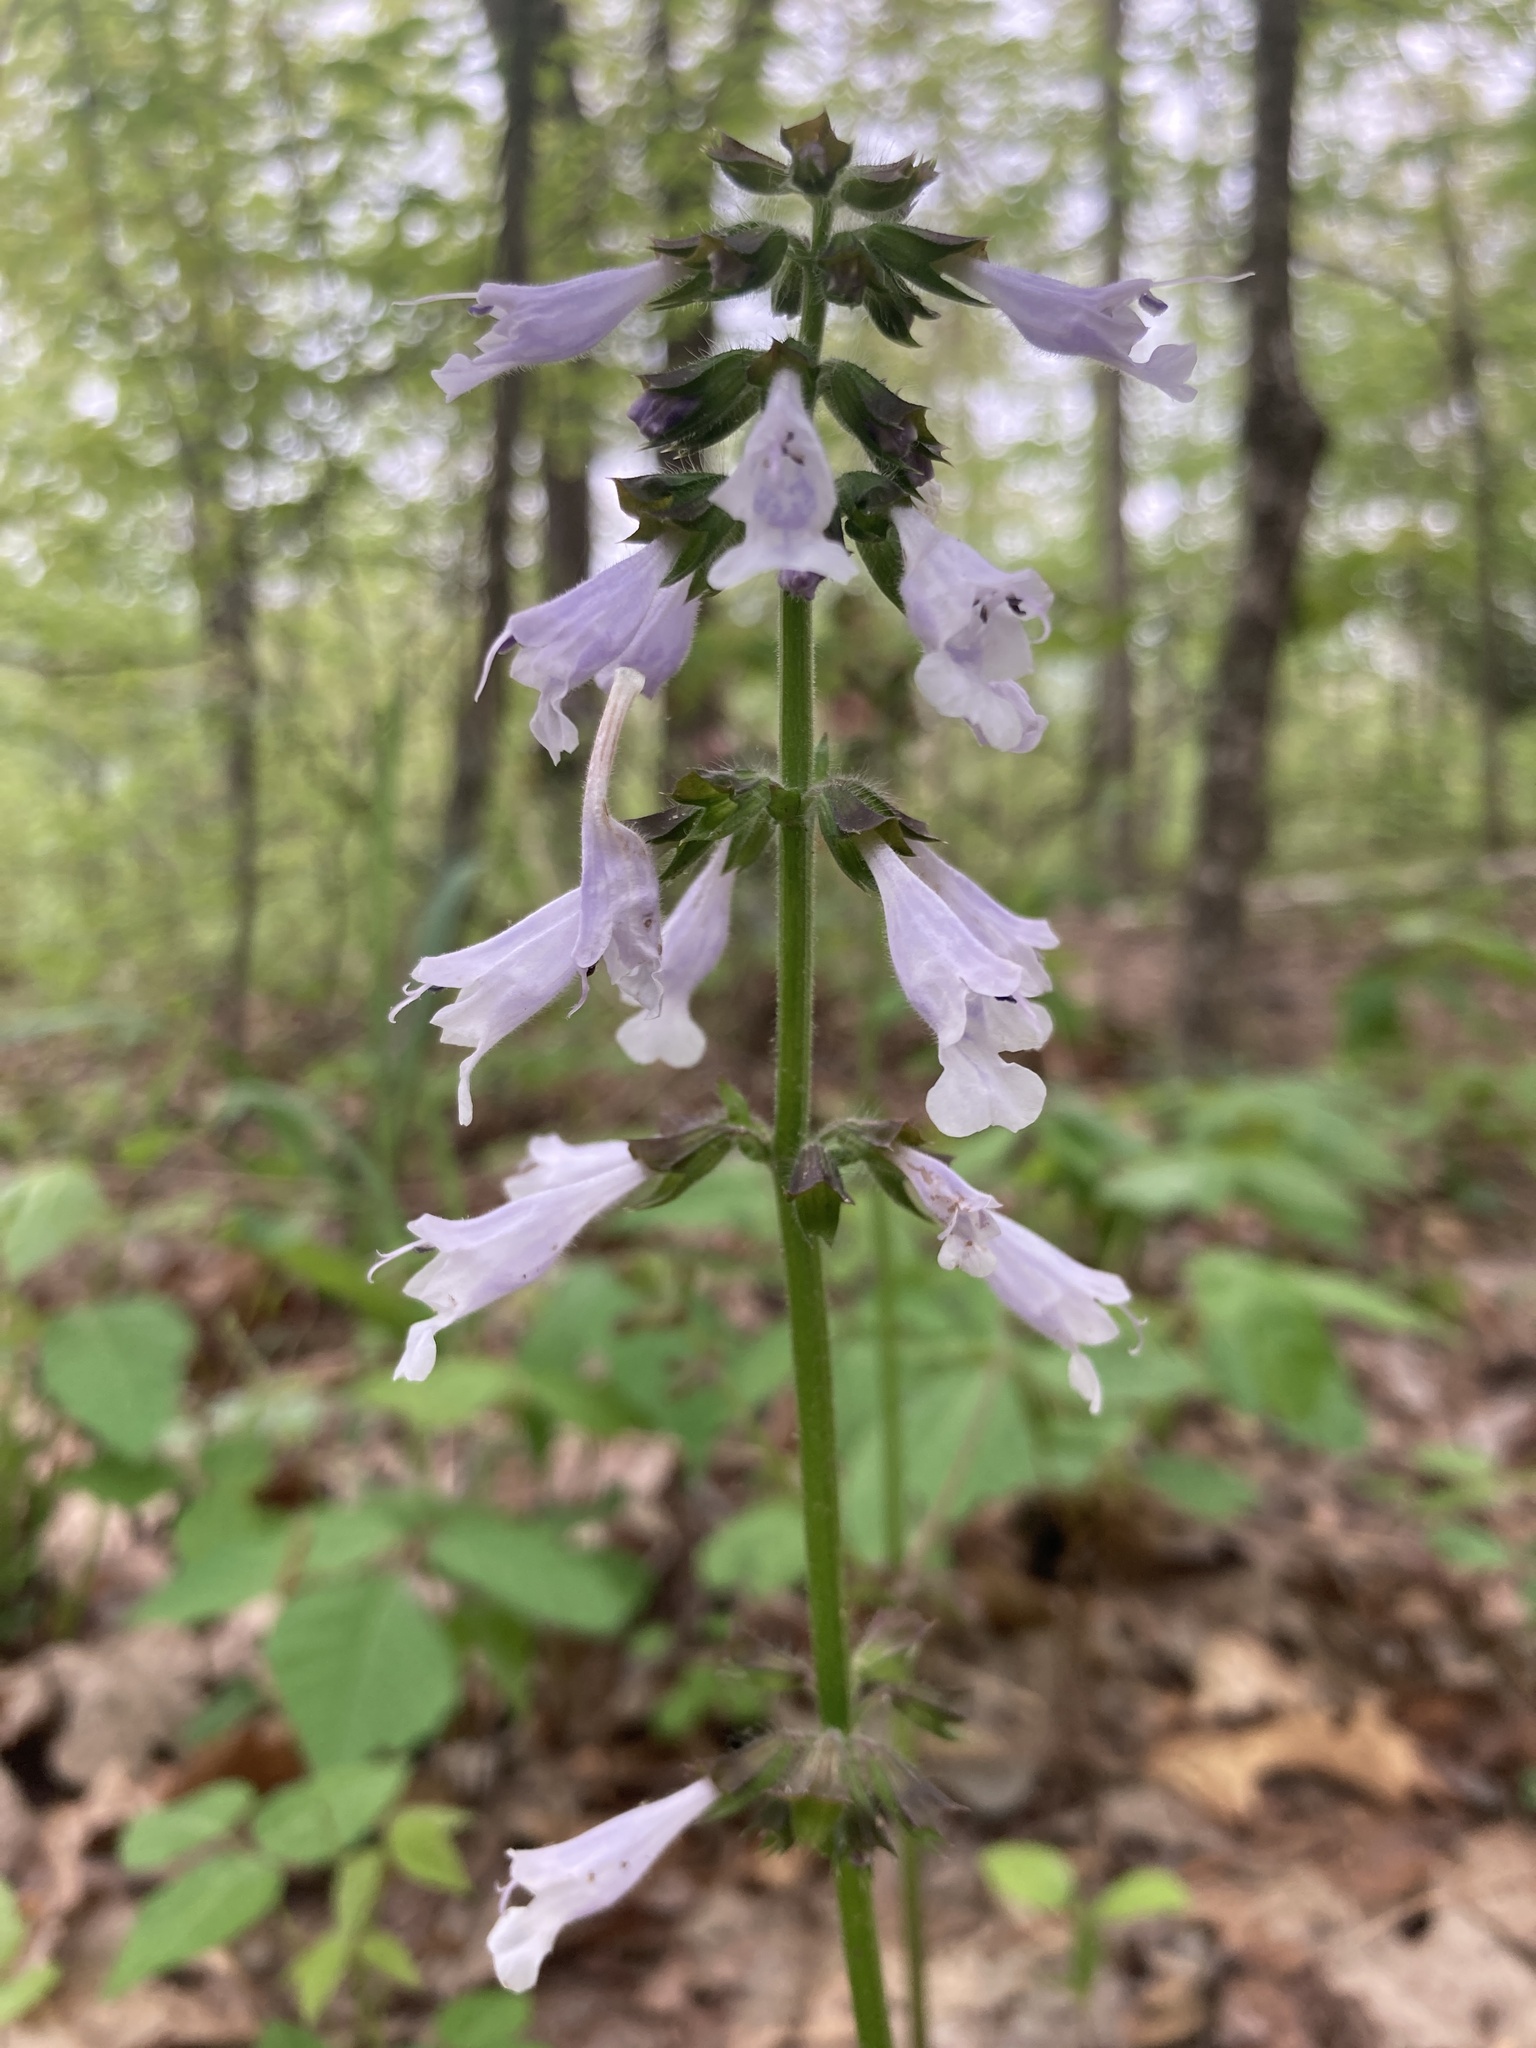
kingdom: Plantae
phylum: Tracheophyta
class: Magnoliopsida
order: Lamiales
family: Lamiaceae
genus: Salvia
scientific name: Salvia lyrata
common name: Cancerweed
